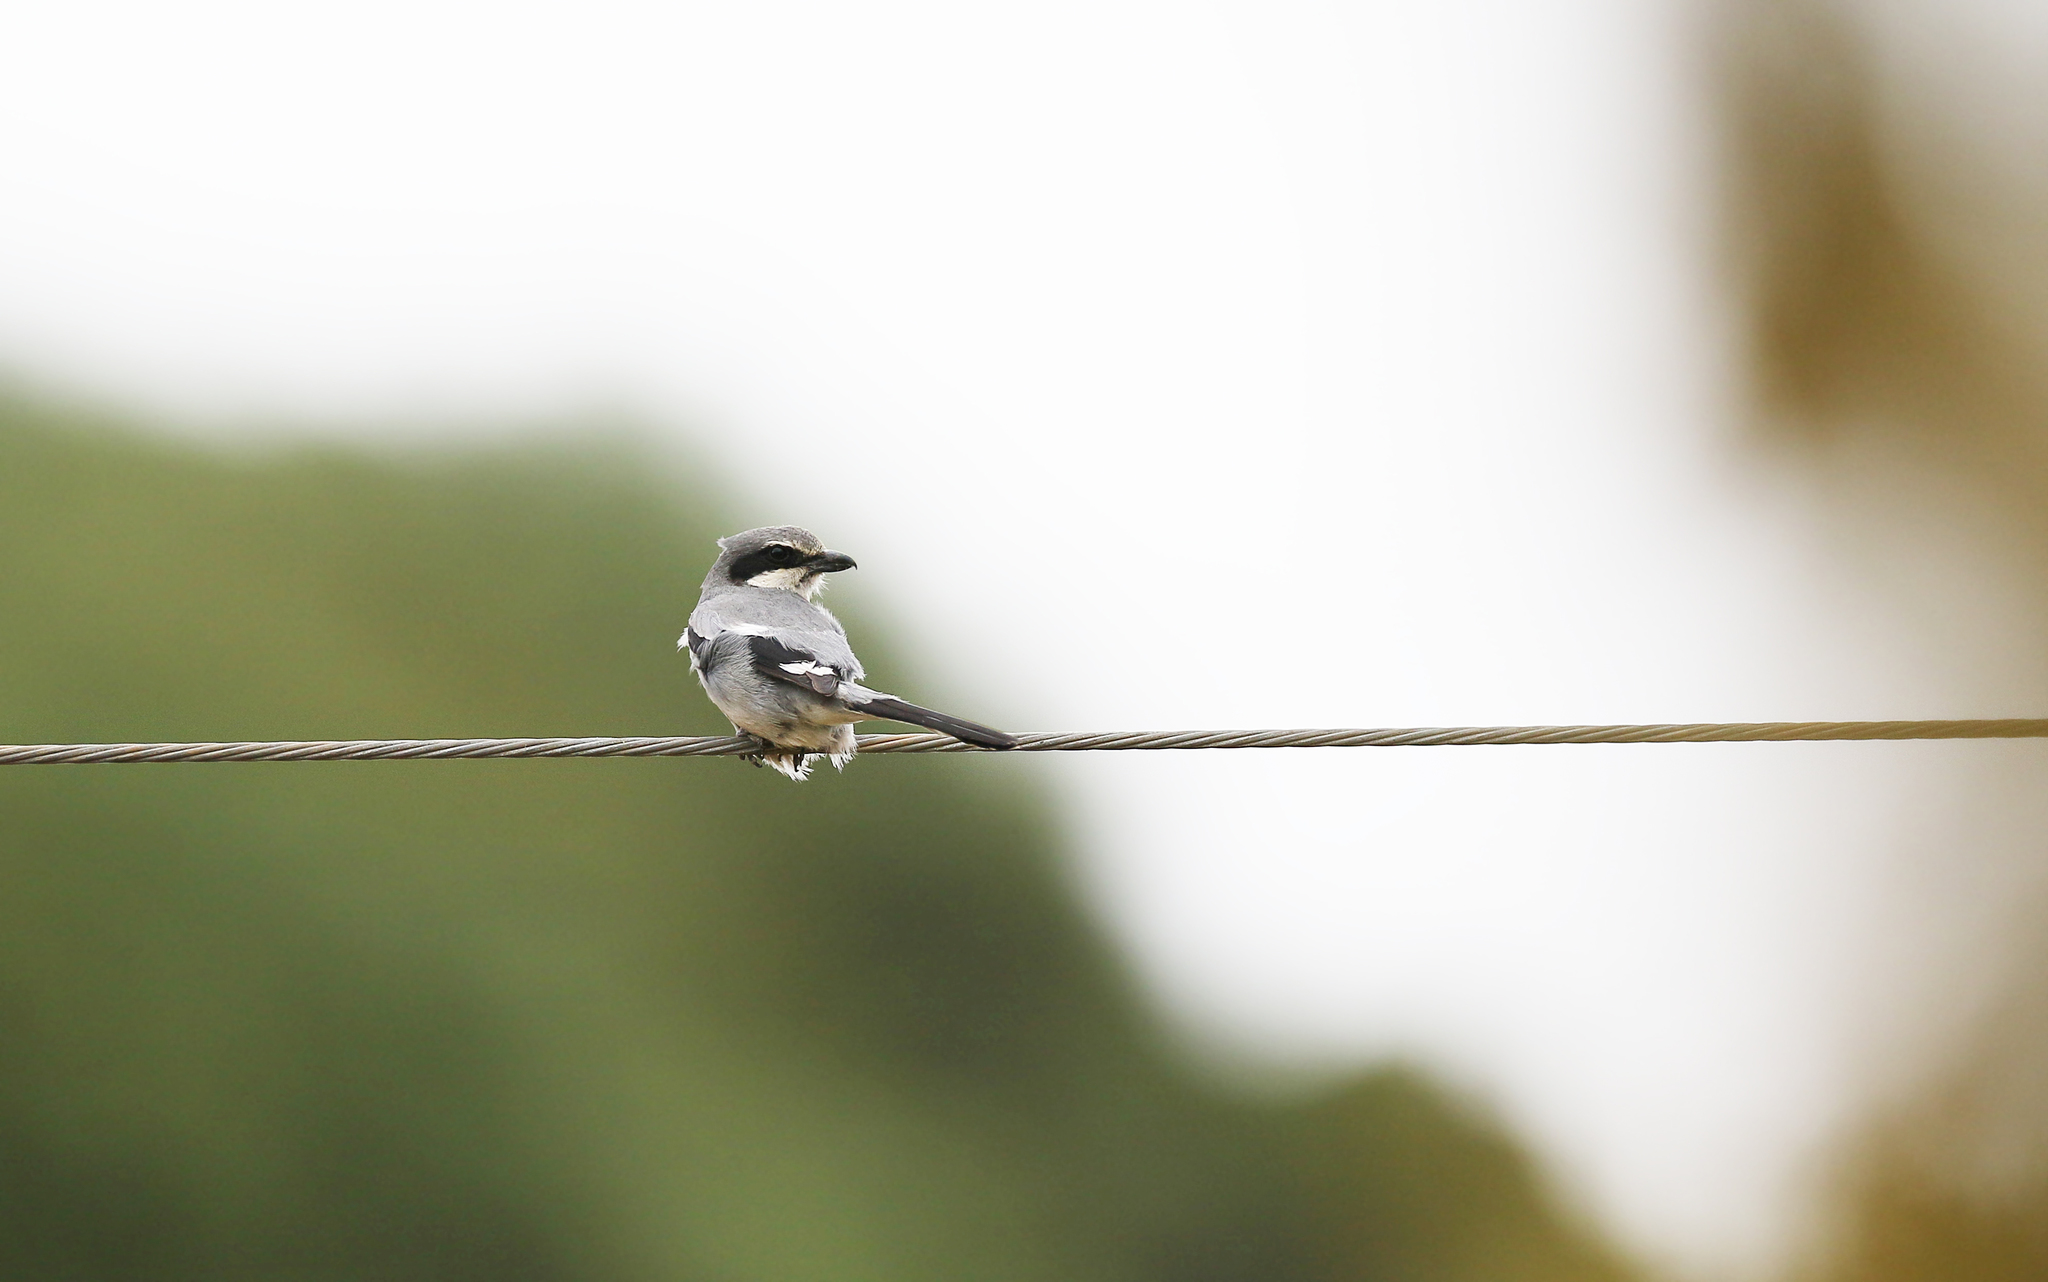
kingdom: Animalia
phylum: Chordata
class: Aves
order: Passeriformes
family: Laniidae
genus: Lanius
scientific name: Lanius meridionalis
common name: Iberian grey shrike
